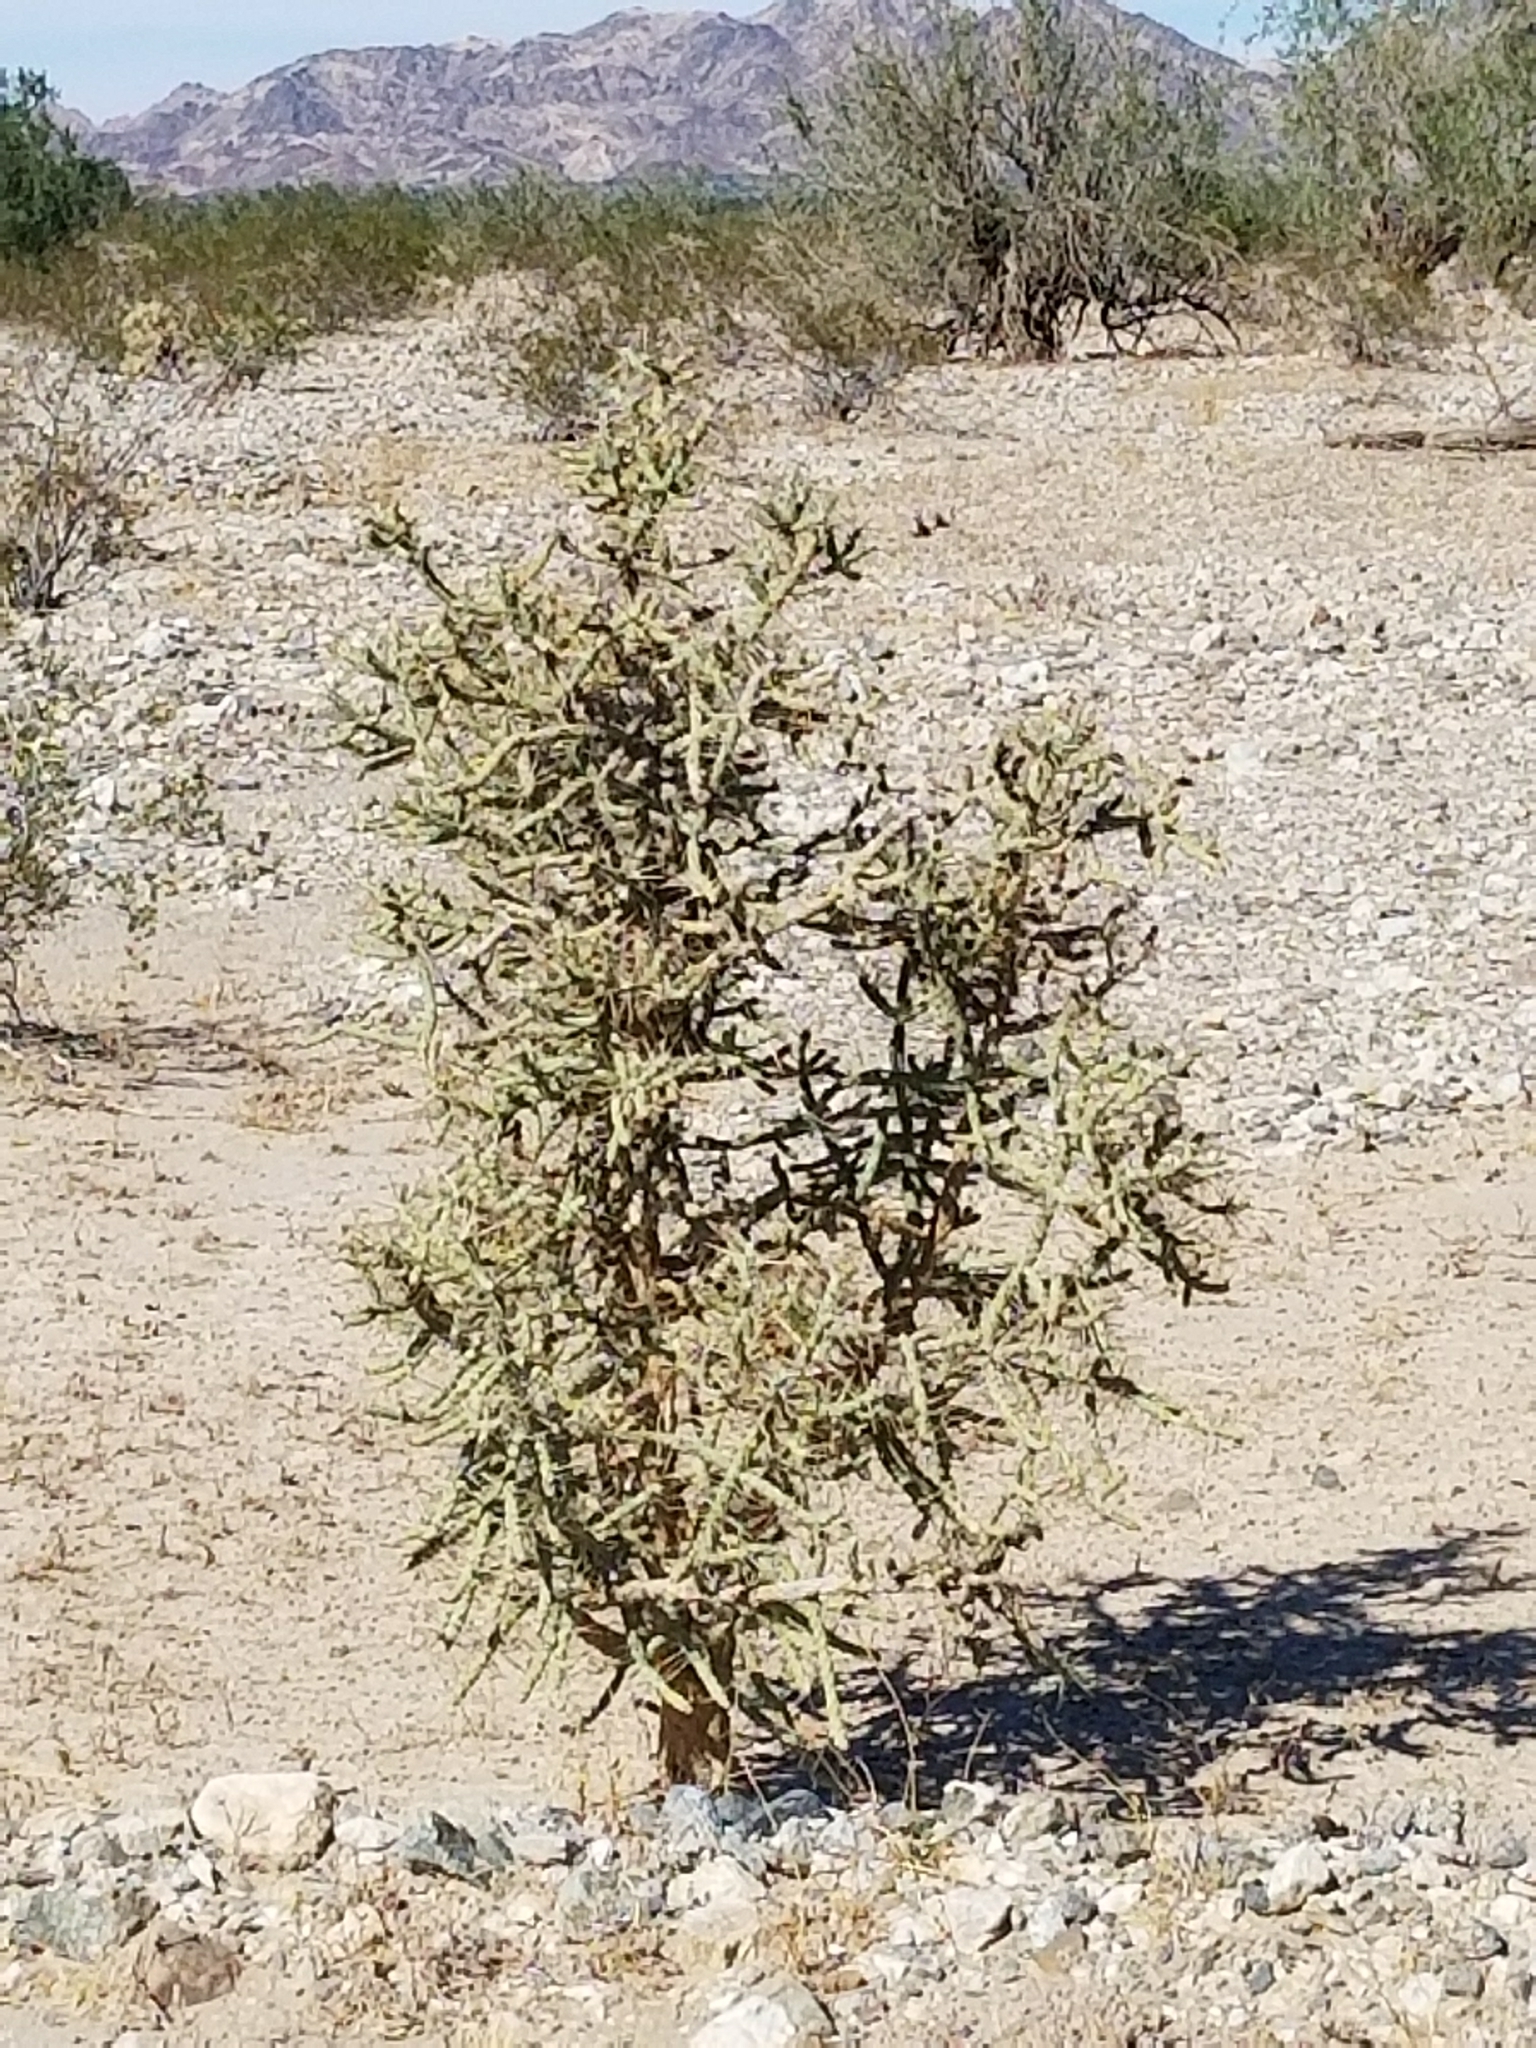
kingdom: Plantae
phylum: Tracheophyta
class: Magnoliopsida
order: Caryophyllales
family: Cactaceae
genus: Cylindropuntia
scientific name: Cylindropuntia ramosissima
